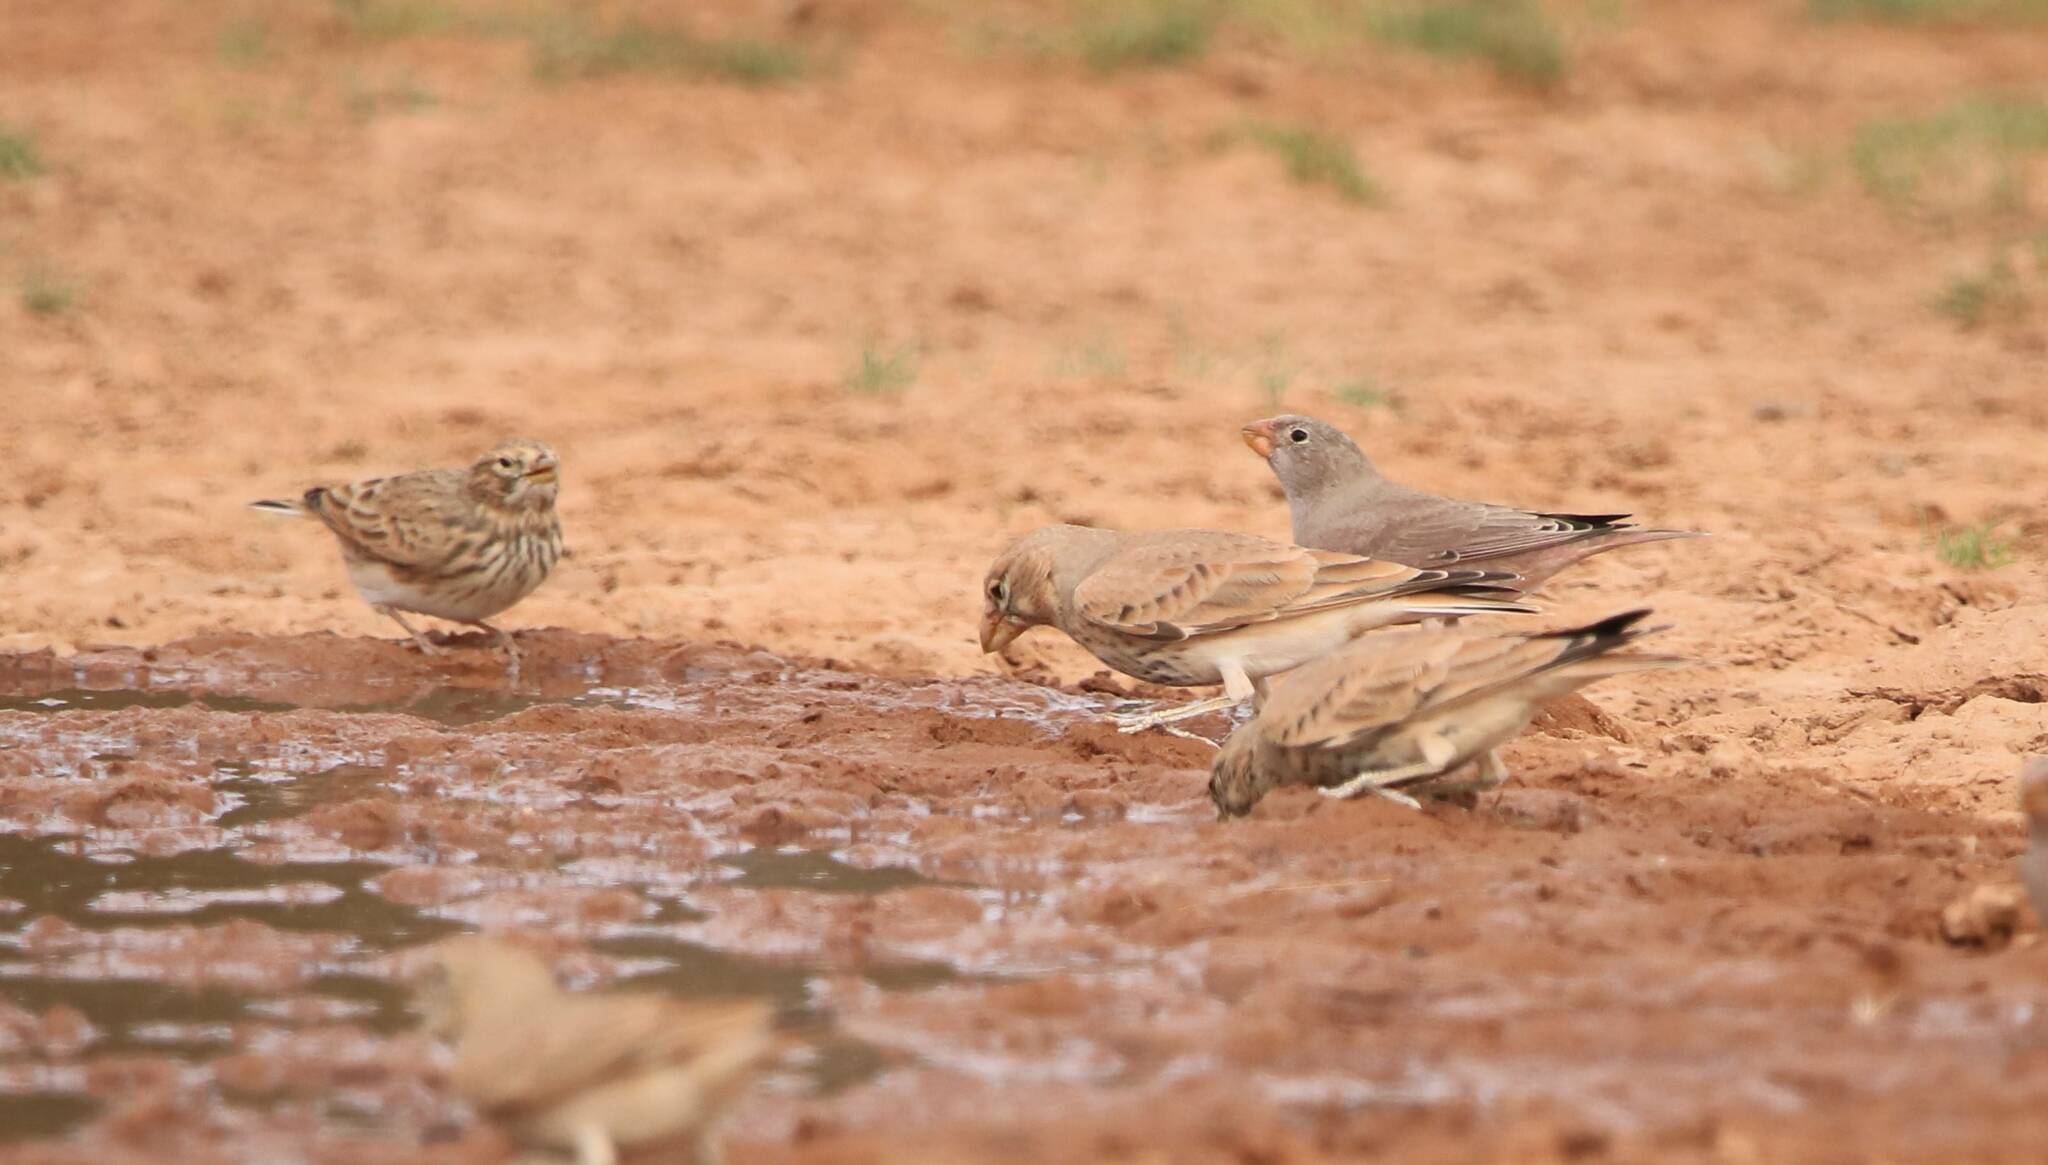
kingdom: Animalia
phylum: Chordata
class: Aves
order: Passeriformes
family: Alaudidae
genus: Ramphocoris
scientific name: Ramphocoris clotbey
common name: Thick-billed lark
